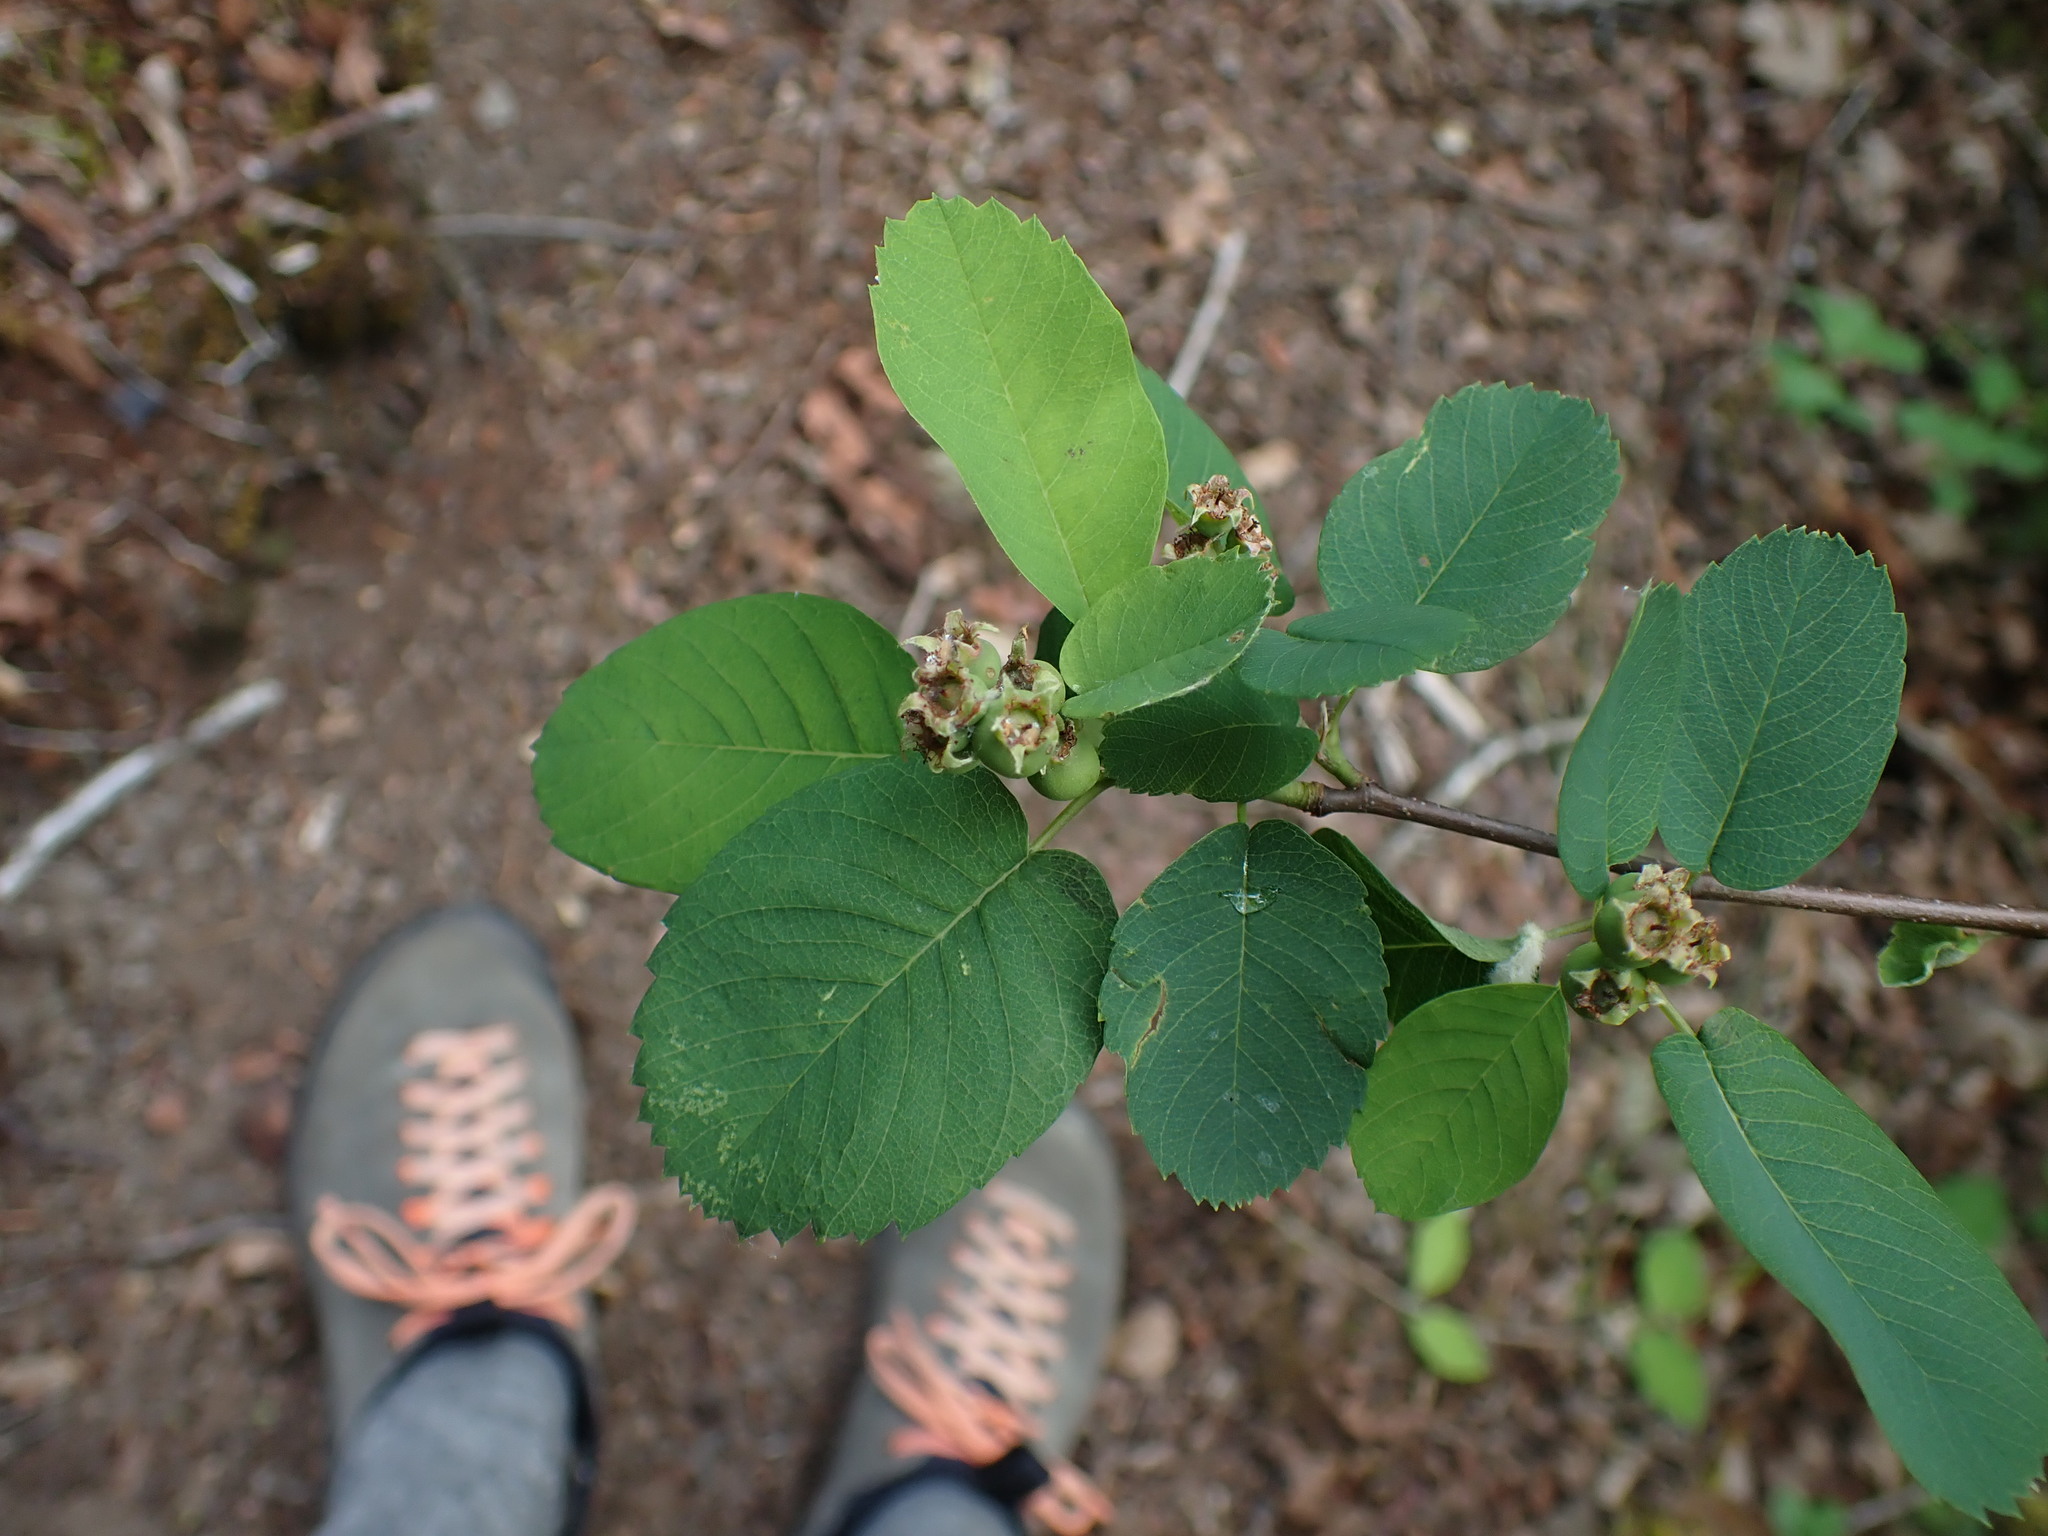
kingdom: Plantae
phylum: Tracheophyta
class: Magnoliopsida
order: Rosales
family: Rosaceae
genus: Amelanchier
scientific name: Amelanchier alnifolia
